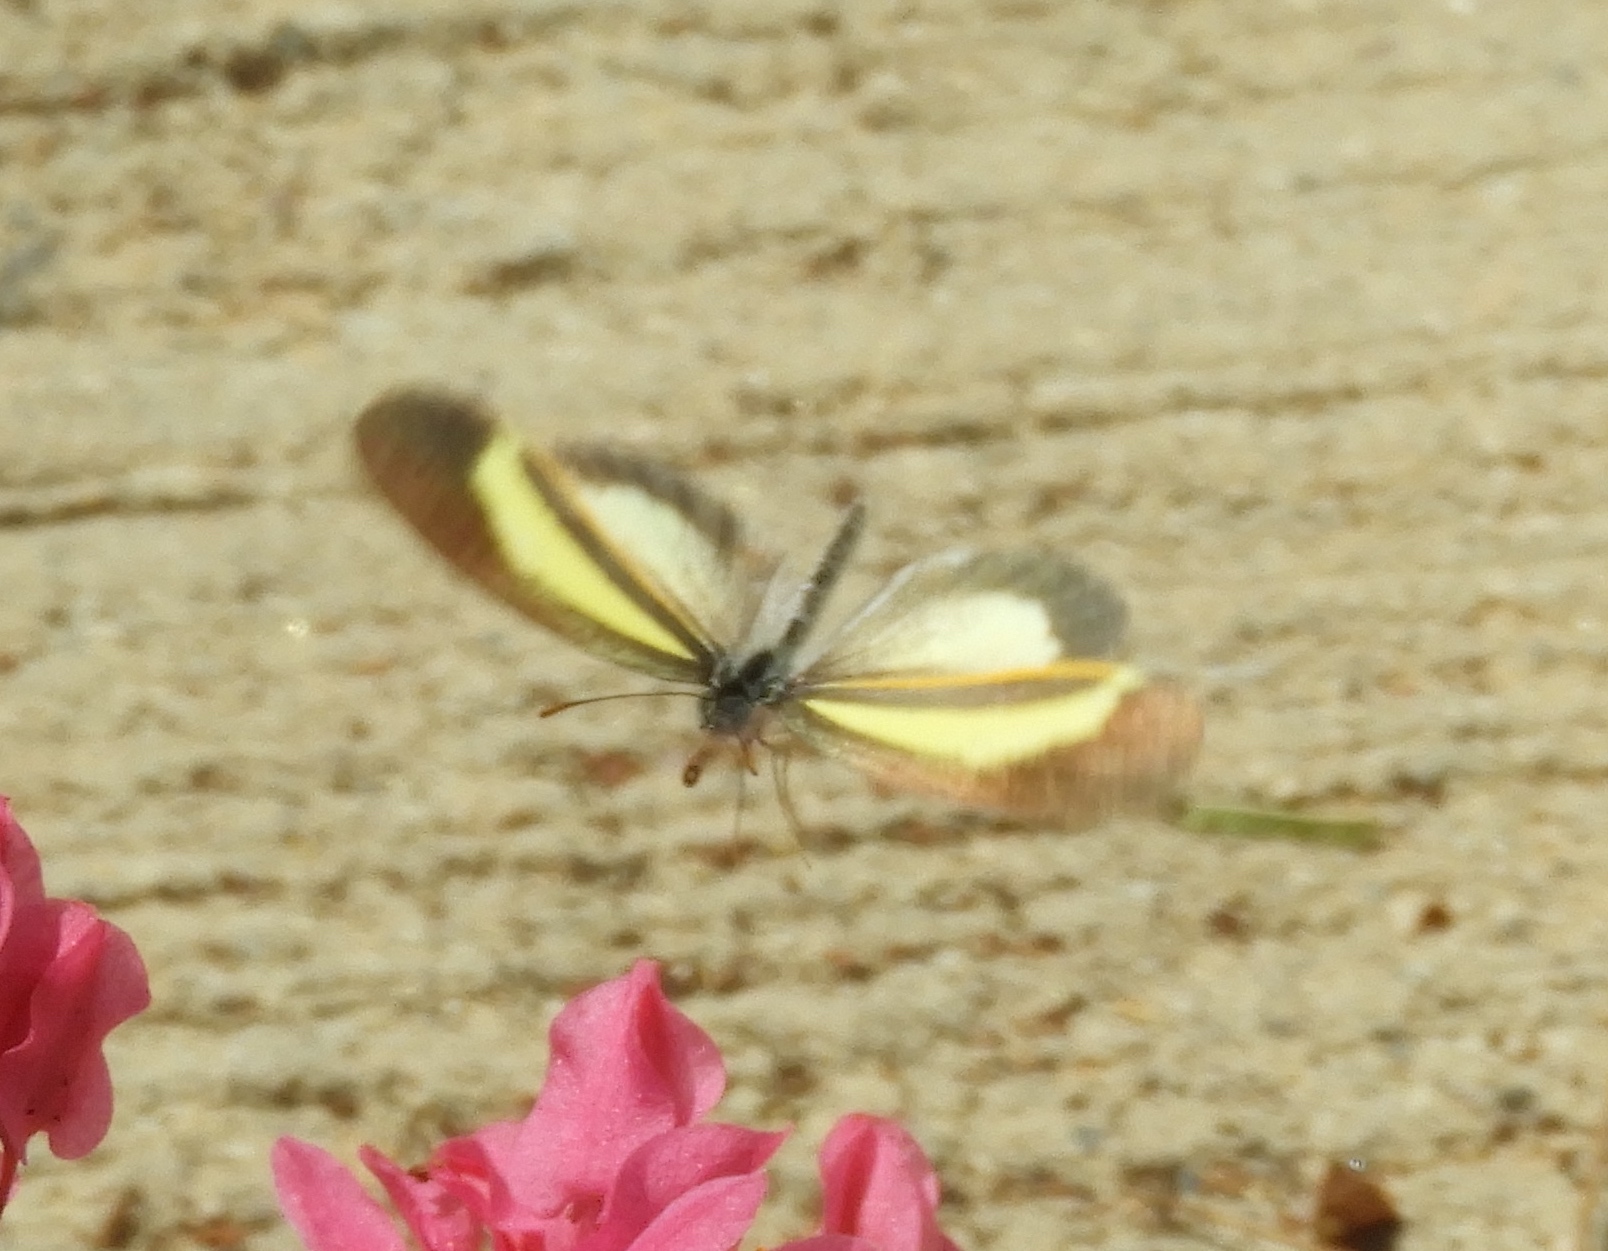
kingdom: Animalia
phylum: Arthropoda
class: Insecta
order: Lepidoptera
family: Pieridae
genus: Eurema
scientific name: Eurema daira
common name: Barred sulphur
